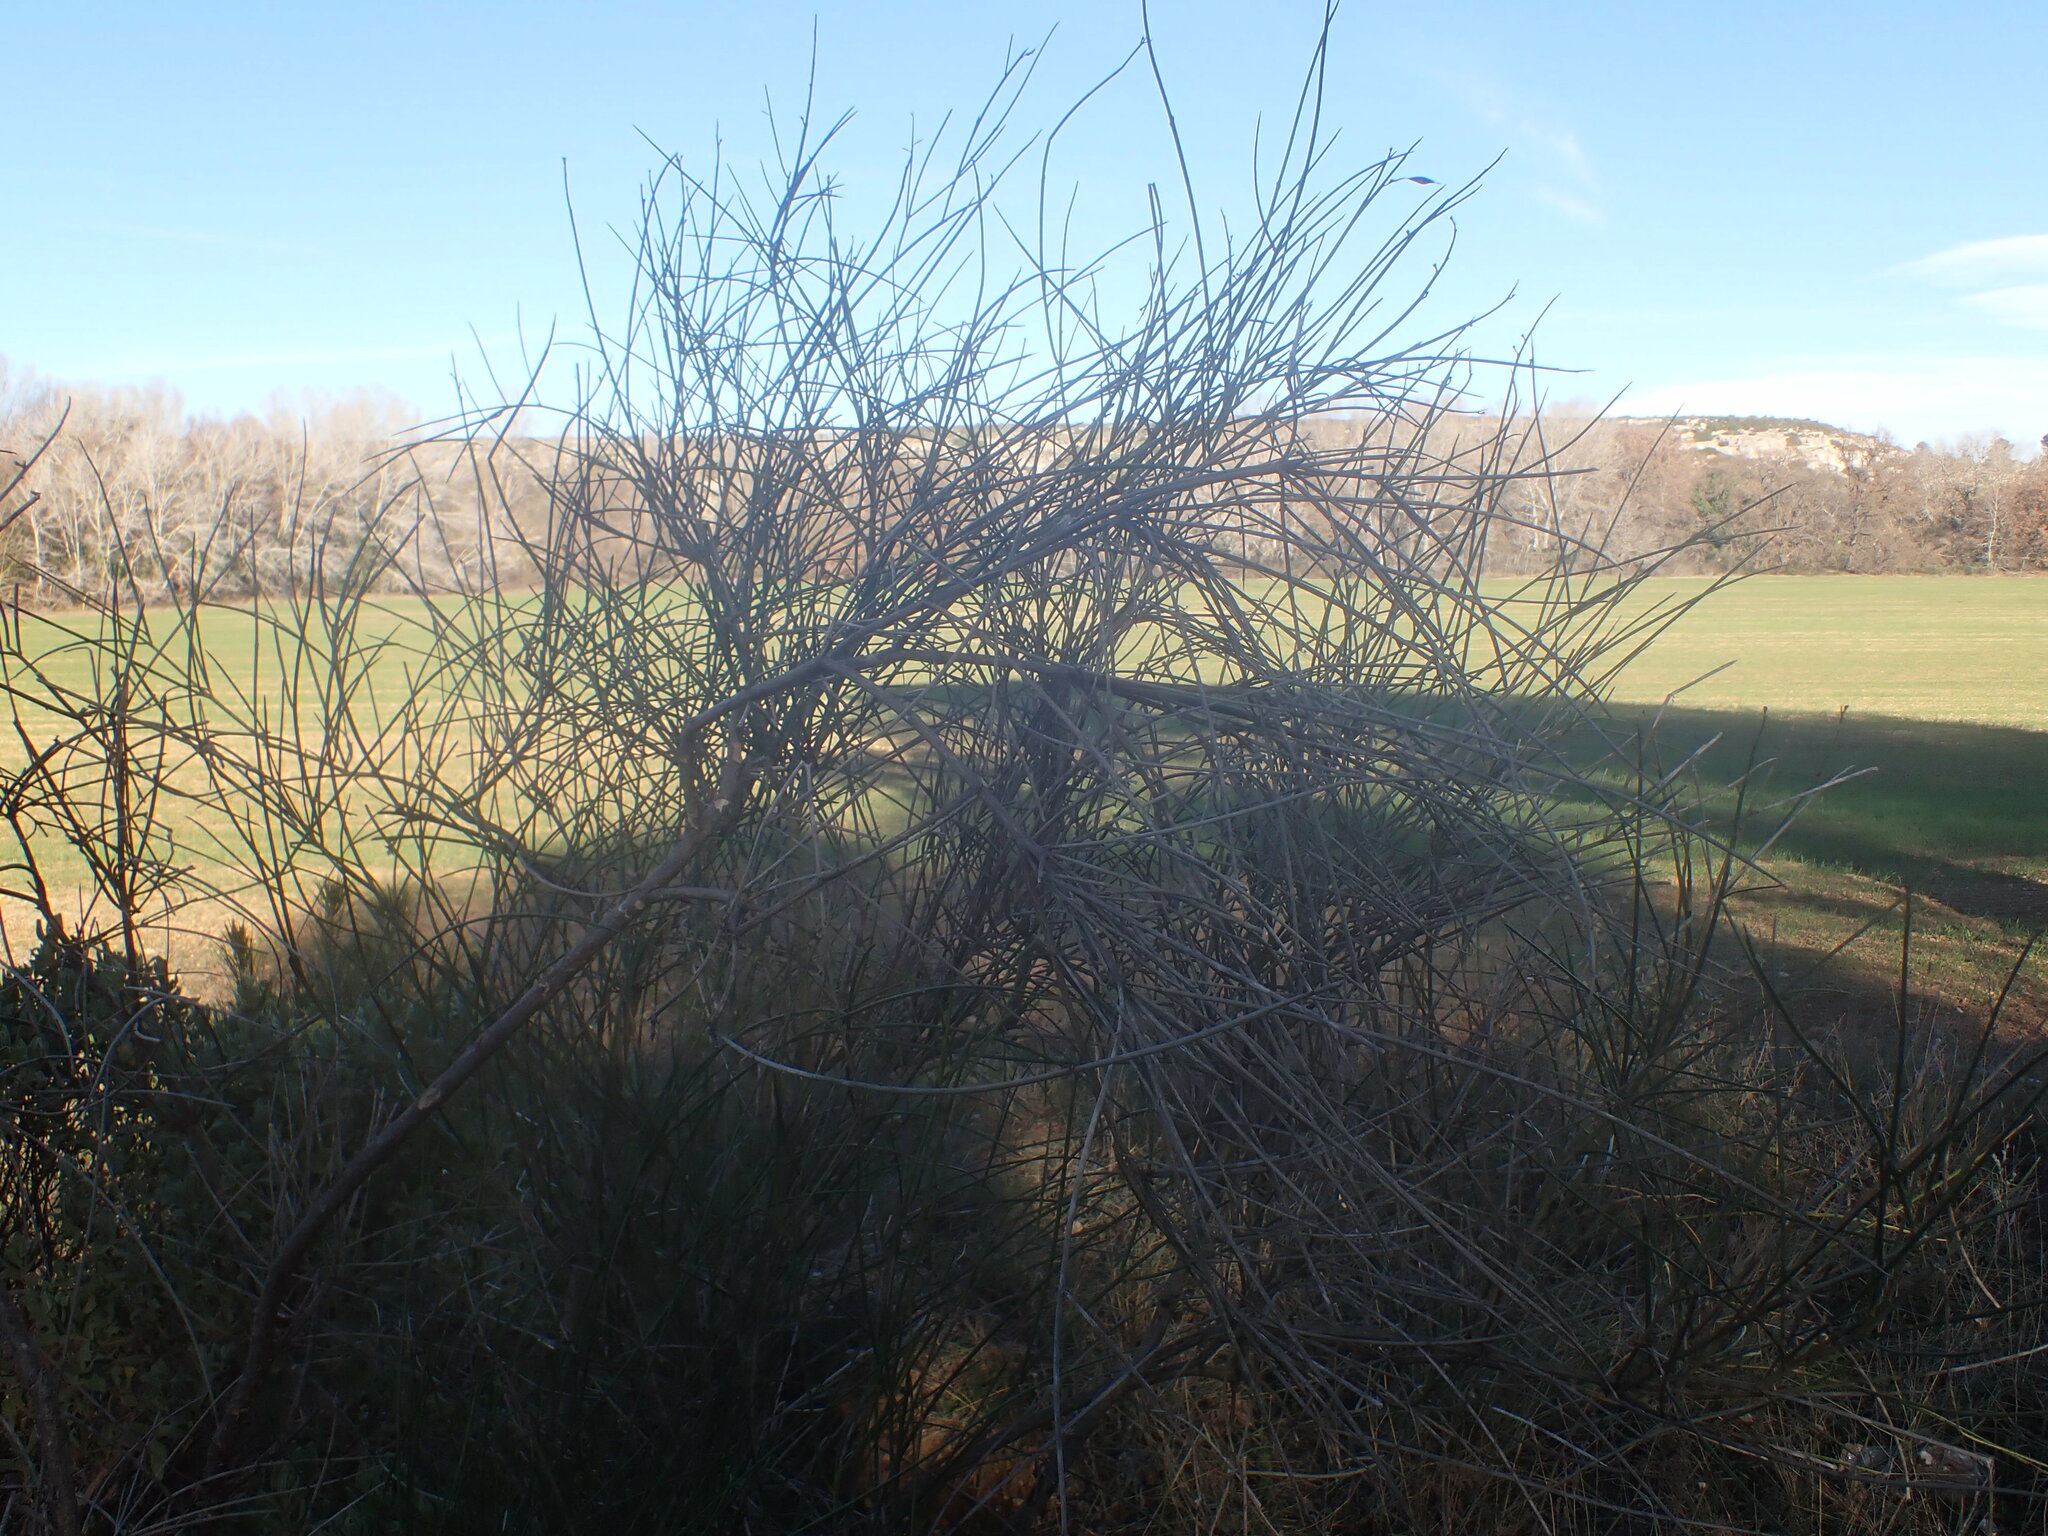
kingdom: Plantae
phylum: Tracheophyta
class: Magnoliopsida
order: Fabales
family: Fabaceae
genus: Spartium
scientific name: Spartium junceum
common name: Spanish broom
